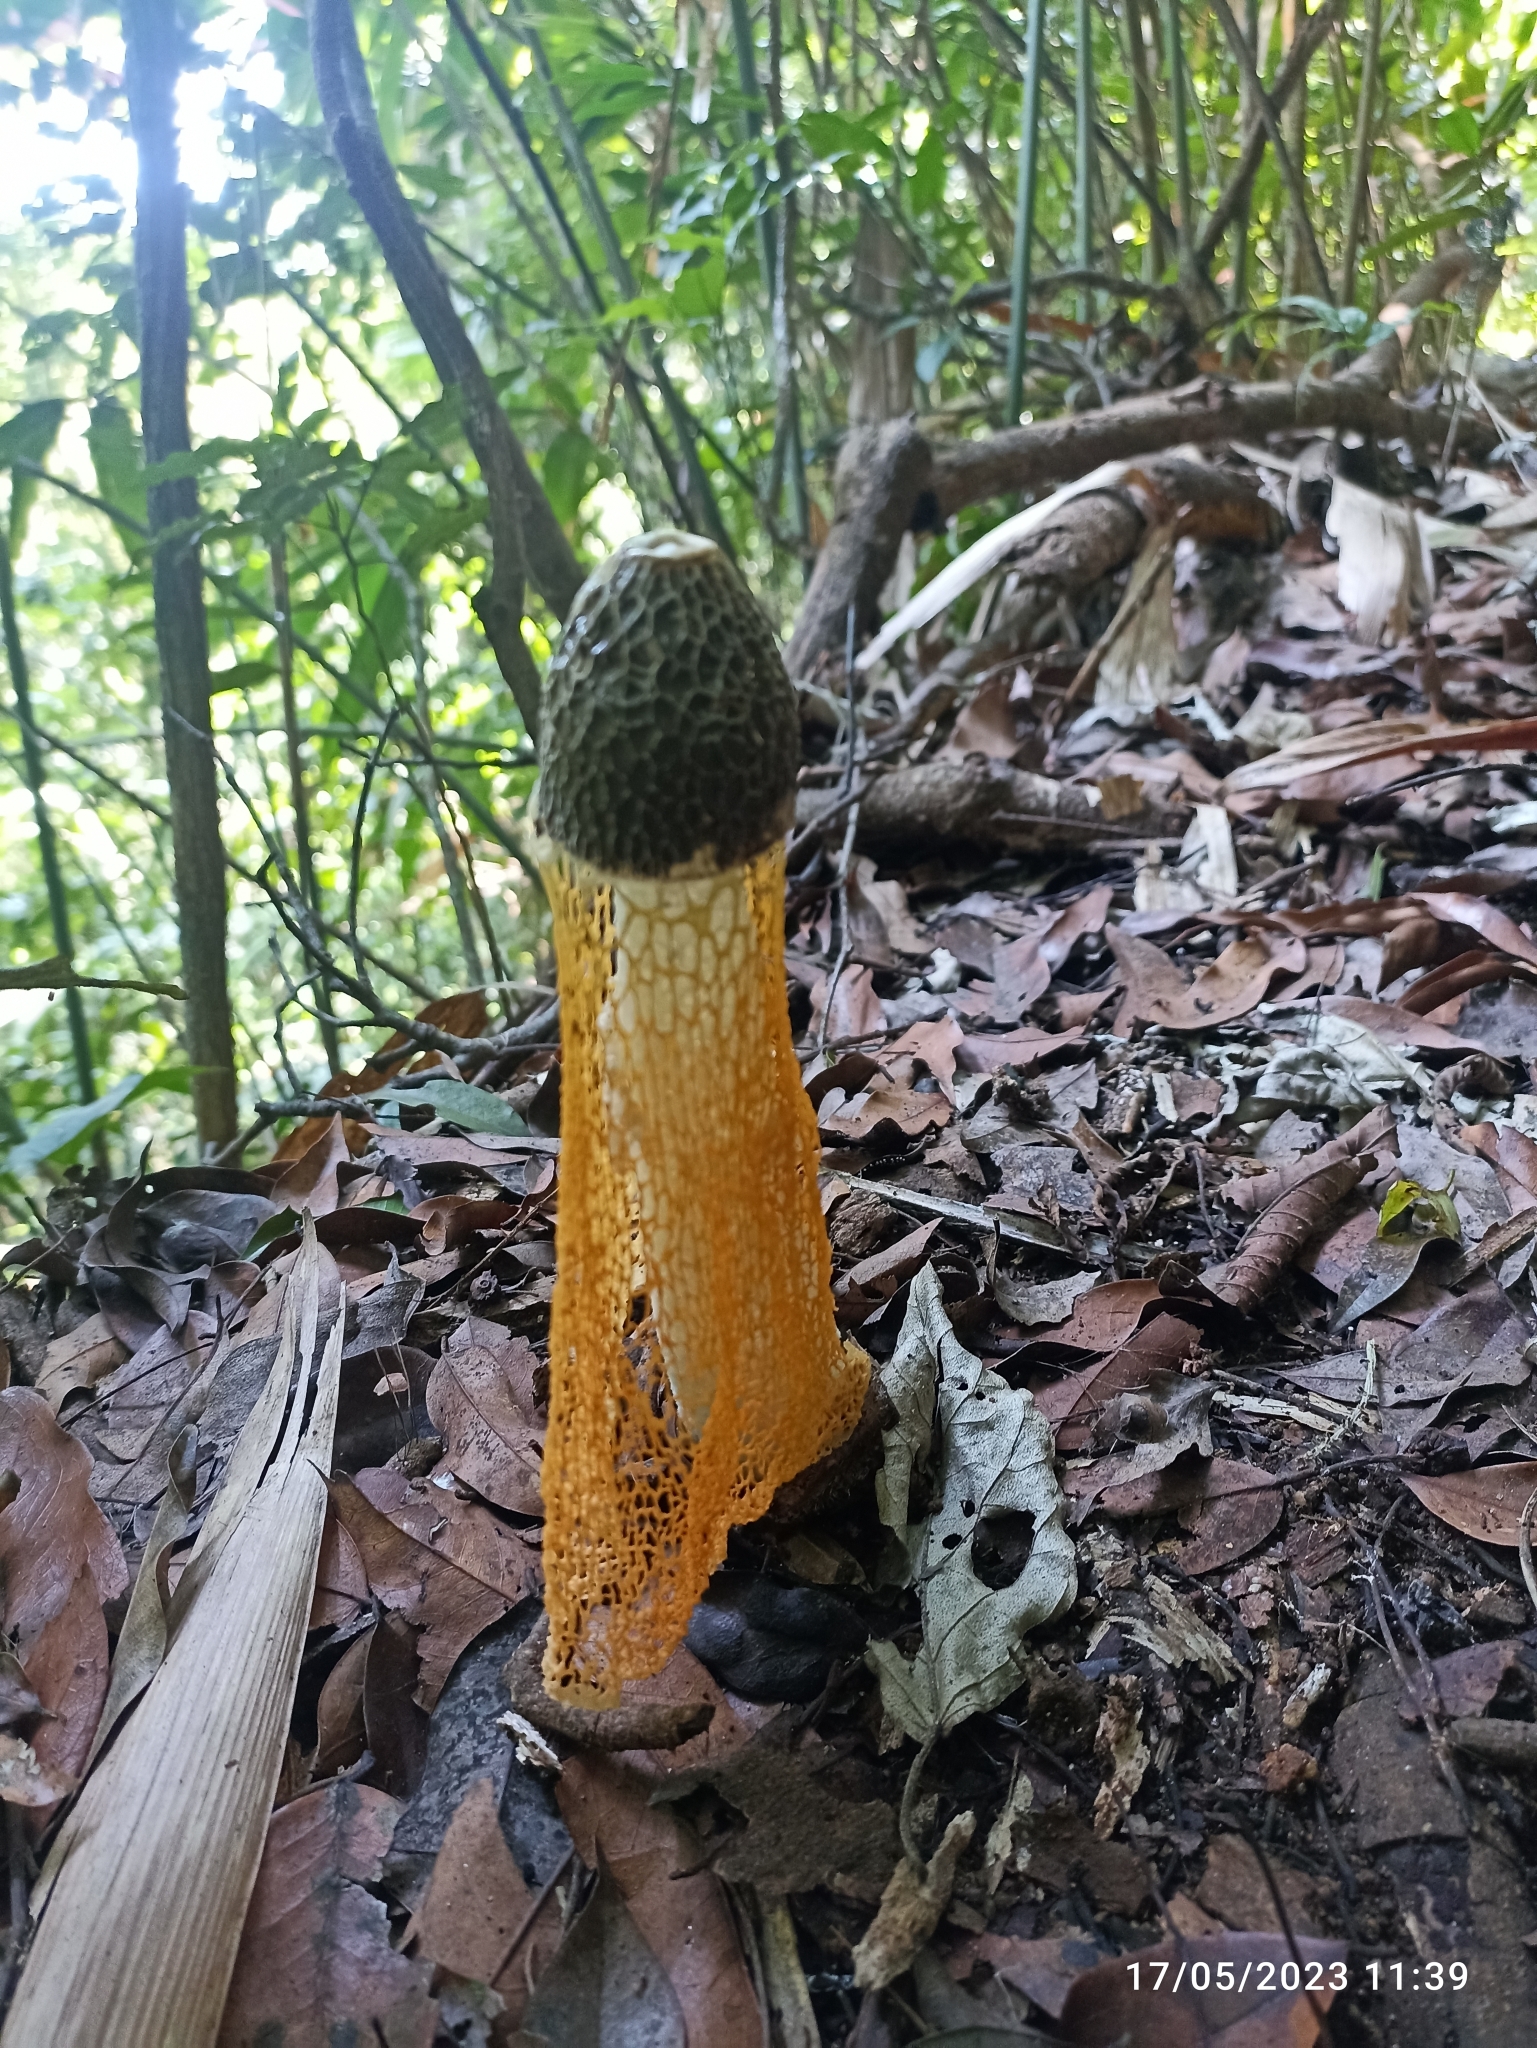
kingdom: Fungi
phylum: Basidiomycota
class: Agaricomycetes
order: Phallales
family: Phallaceae
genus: Phallus
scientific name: Phallus luteus
